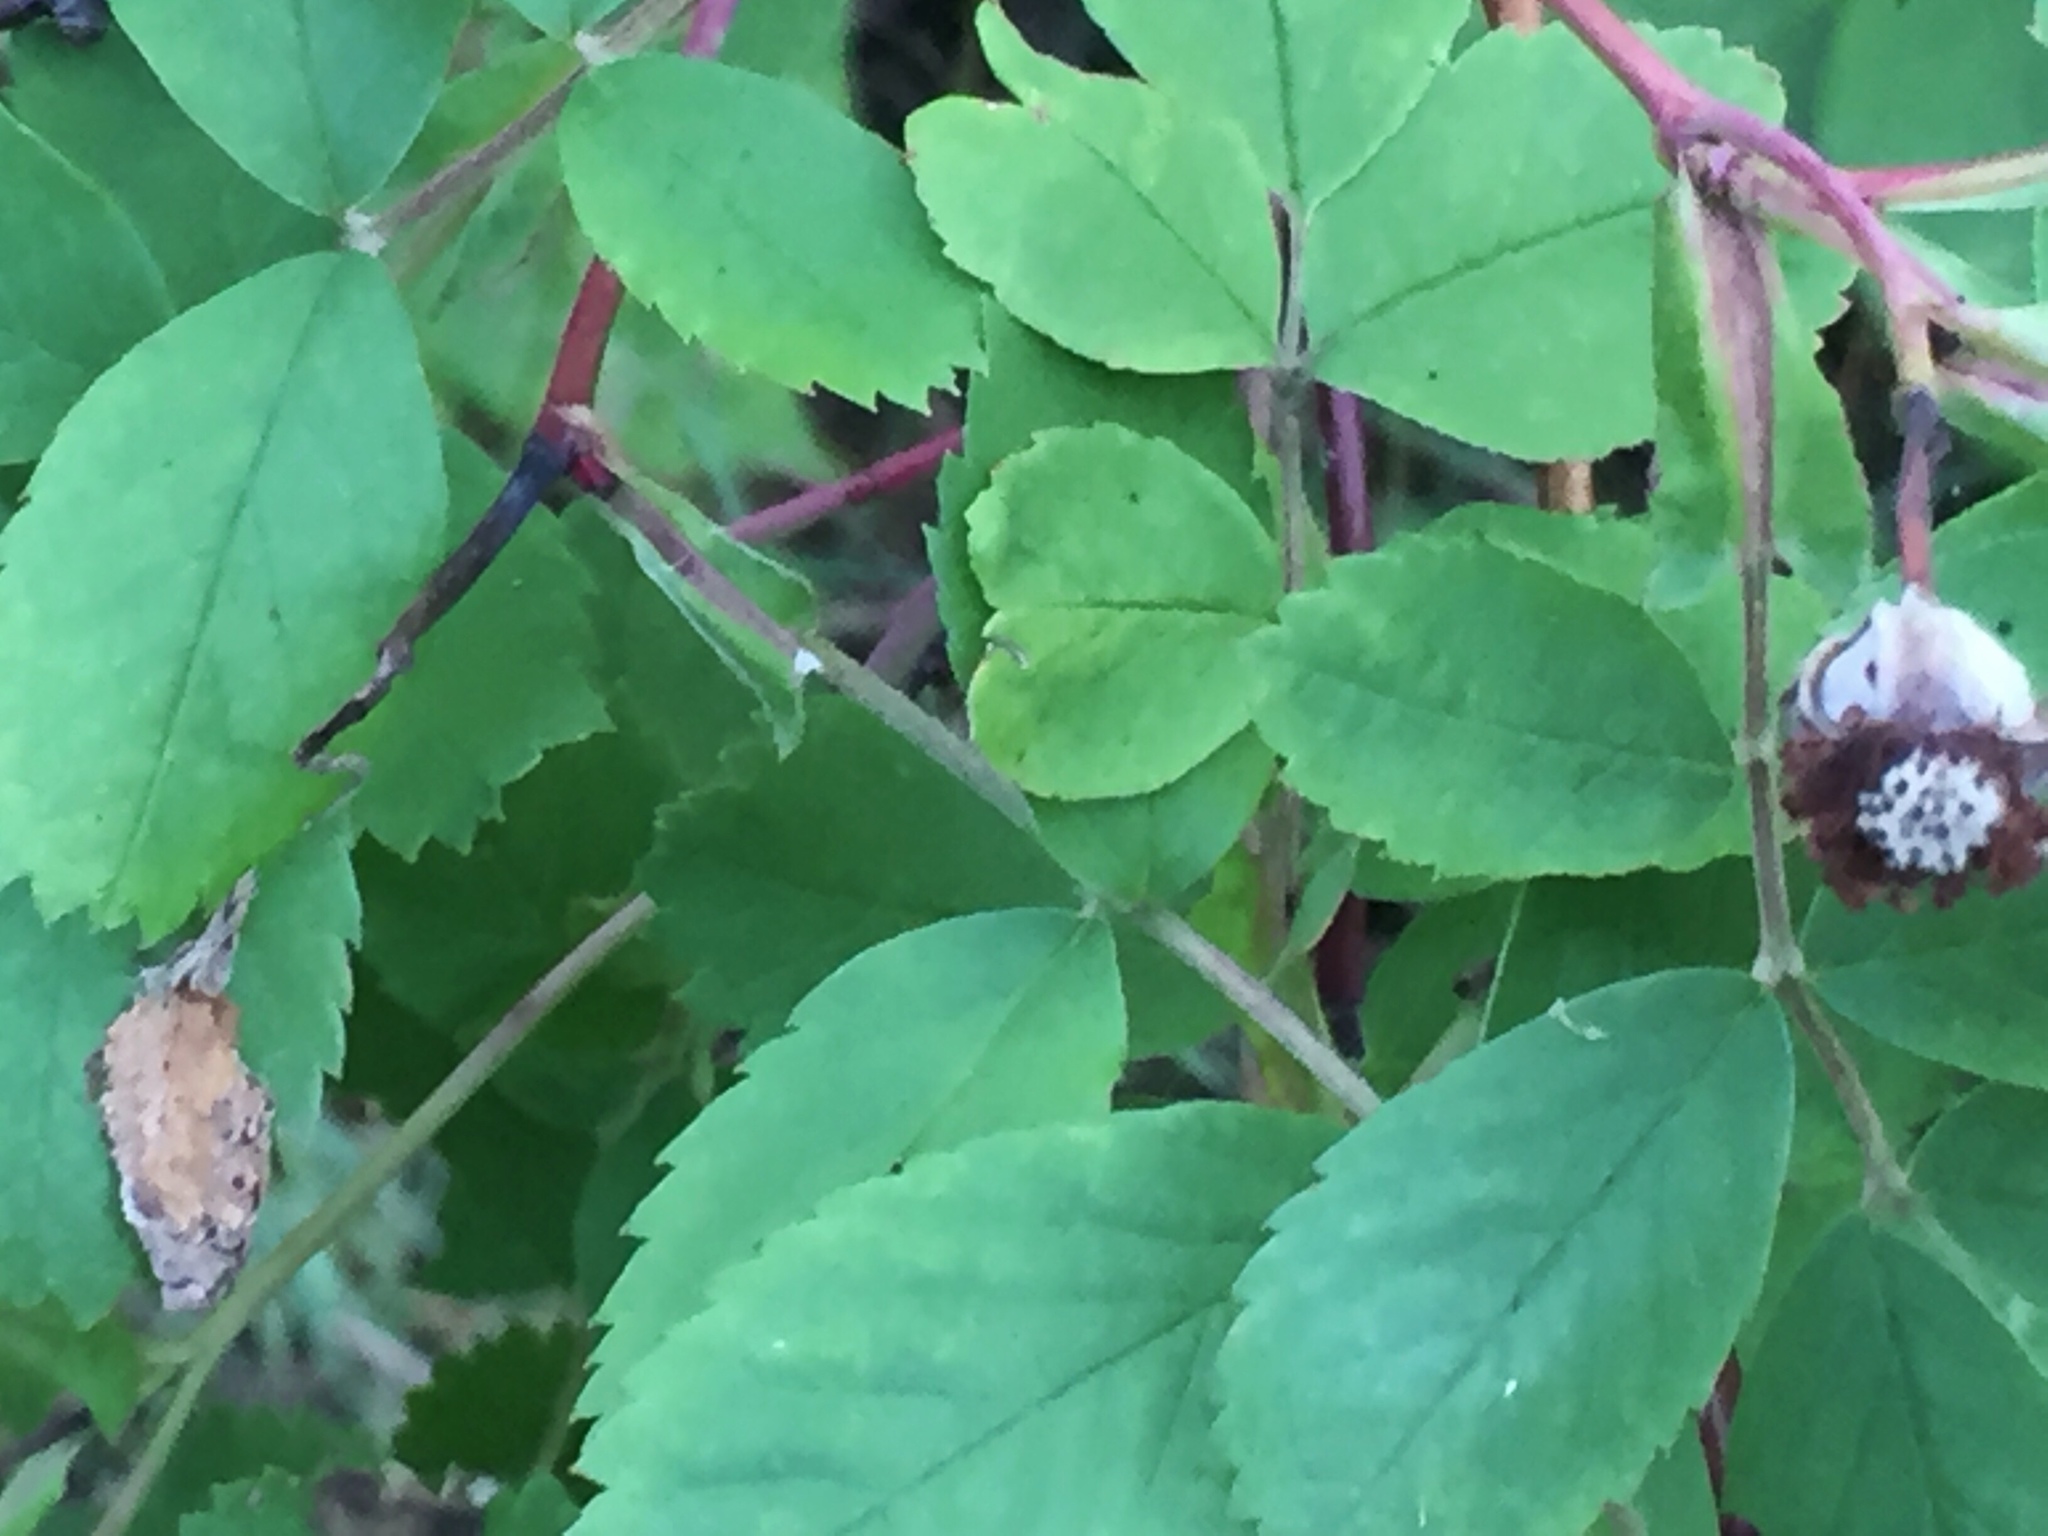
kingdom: Plantae
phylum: Tracheophyta
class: Magnoliopsida
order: Rosales
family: Rosaceae
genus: Rosa
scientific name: Rosa acicularis
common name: Prickly rose
